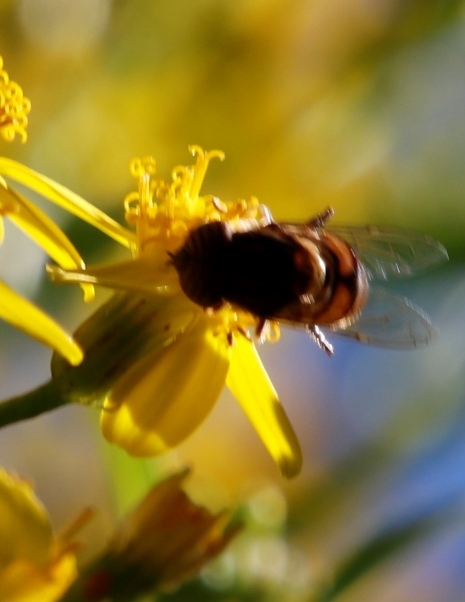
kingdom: Animalia
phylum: Arthropoda
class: Insecta
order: Diptera
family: Syrphidae
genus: Eristalinus
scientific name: Eristalinus barclayi
